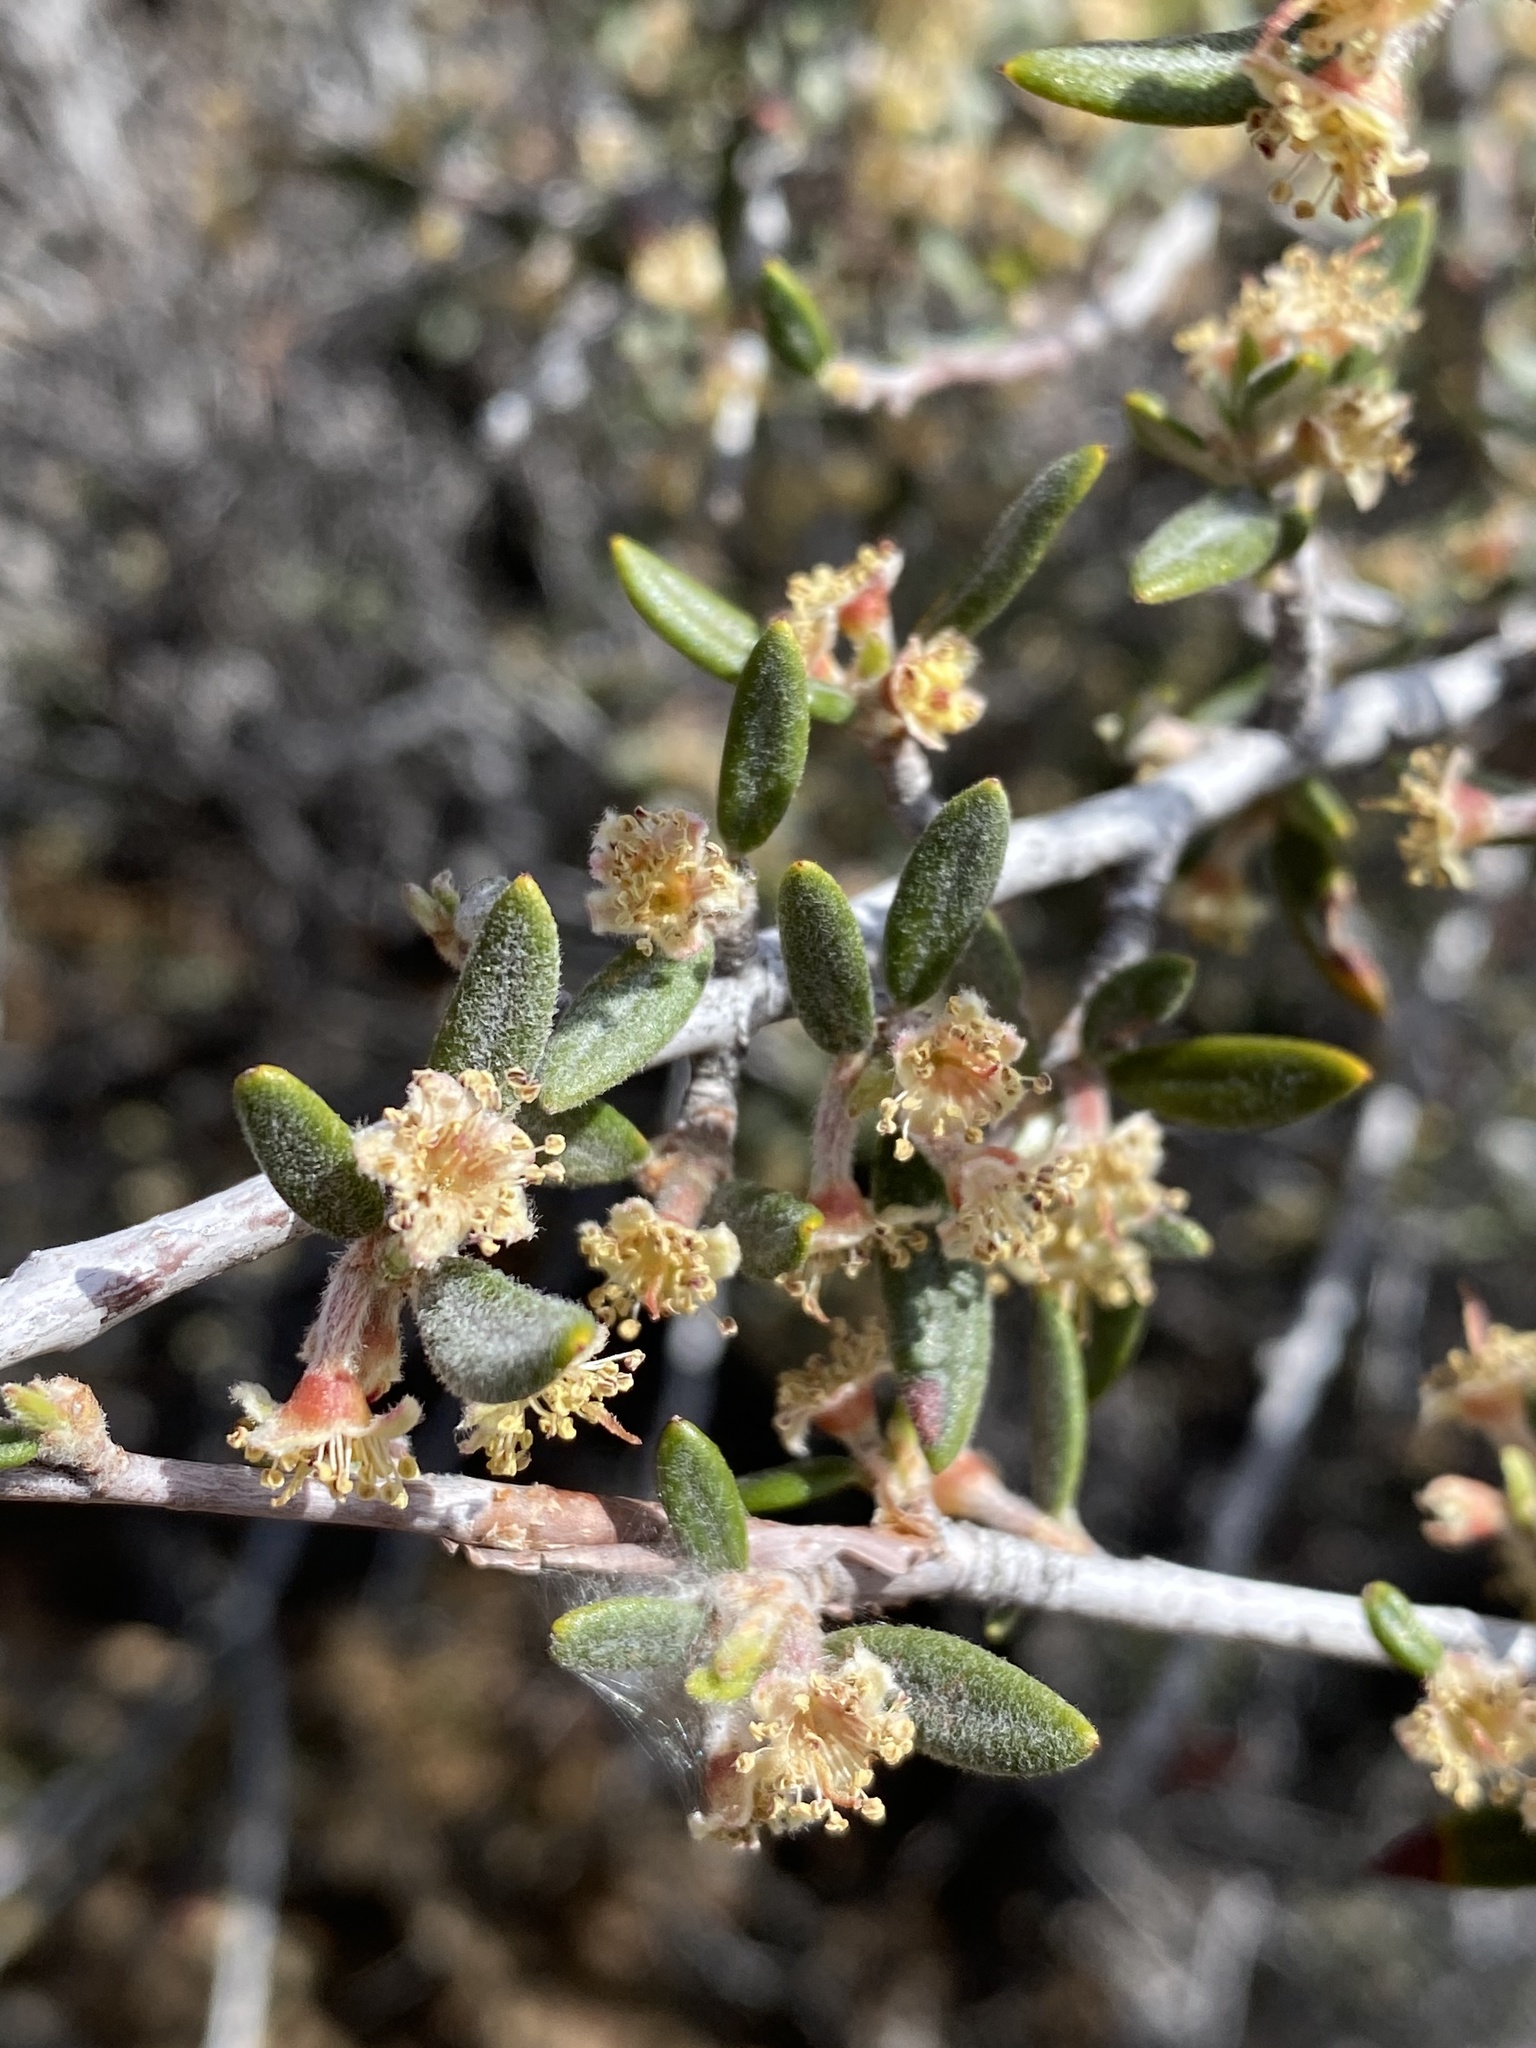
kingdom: Plantae
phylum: Tracheophyta
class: Magnoliopsida
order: Rosales
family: Rosaceae
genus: Cercocarpus
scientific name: Cercocarpus ledifolius
